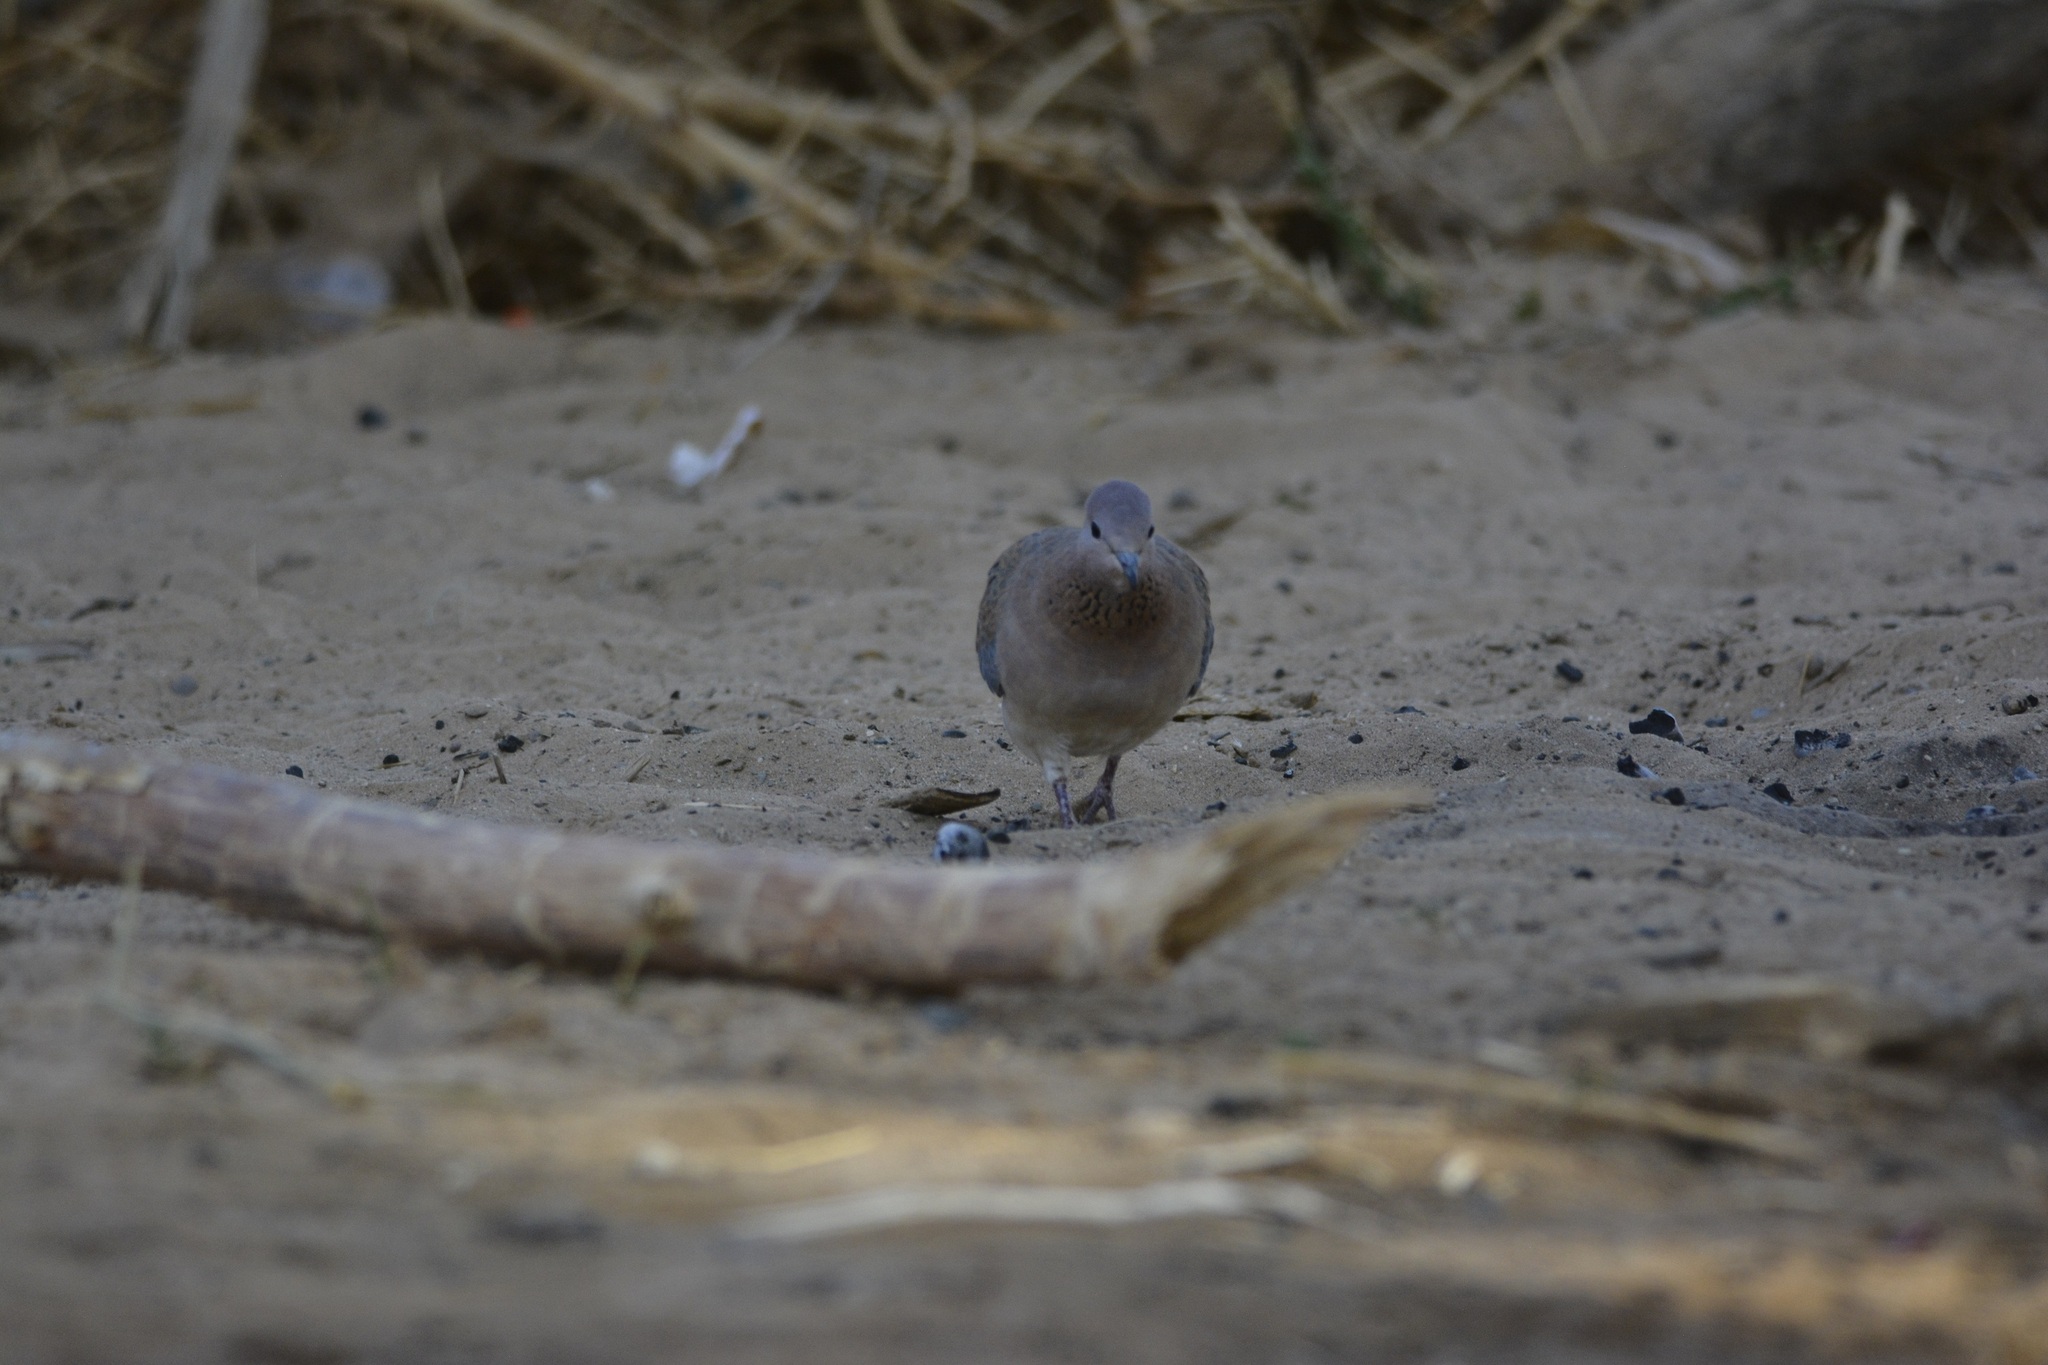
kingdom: Animalia
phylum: Chordata
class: Aves
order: Columbiformes
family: Columbidae
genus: Spilopelia
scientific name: Spilopelia senegalensis
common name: Laughing dove
